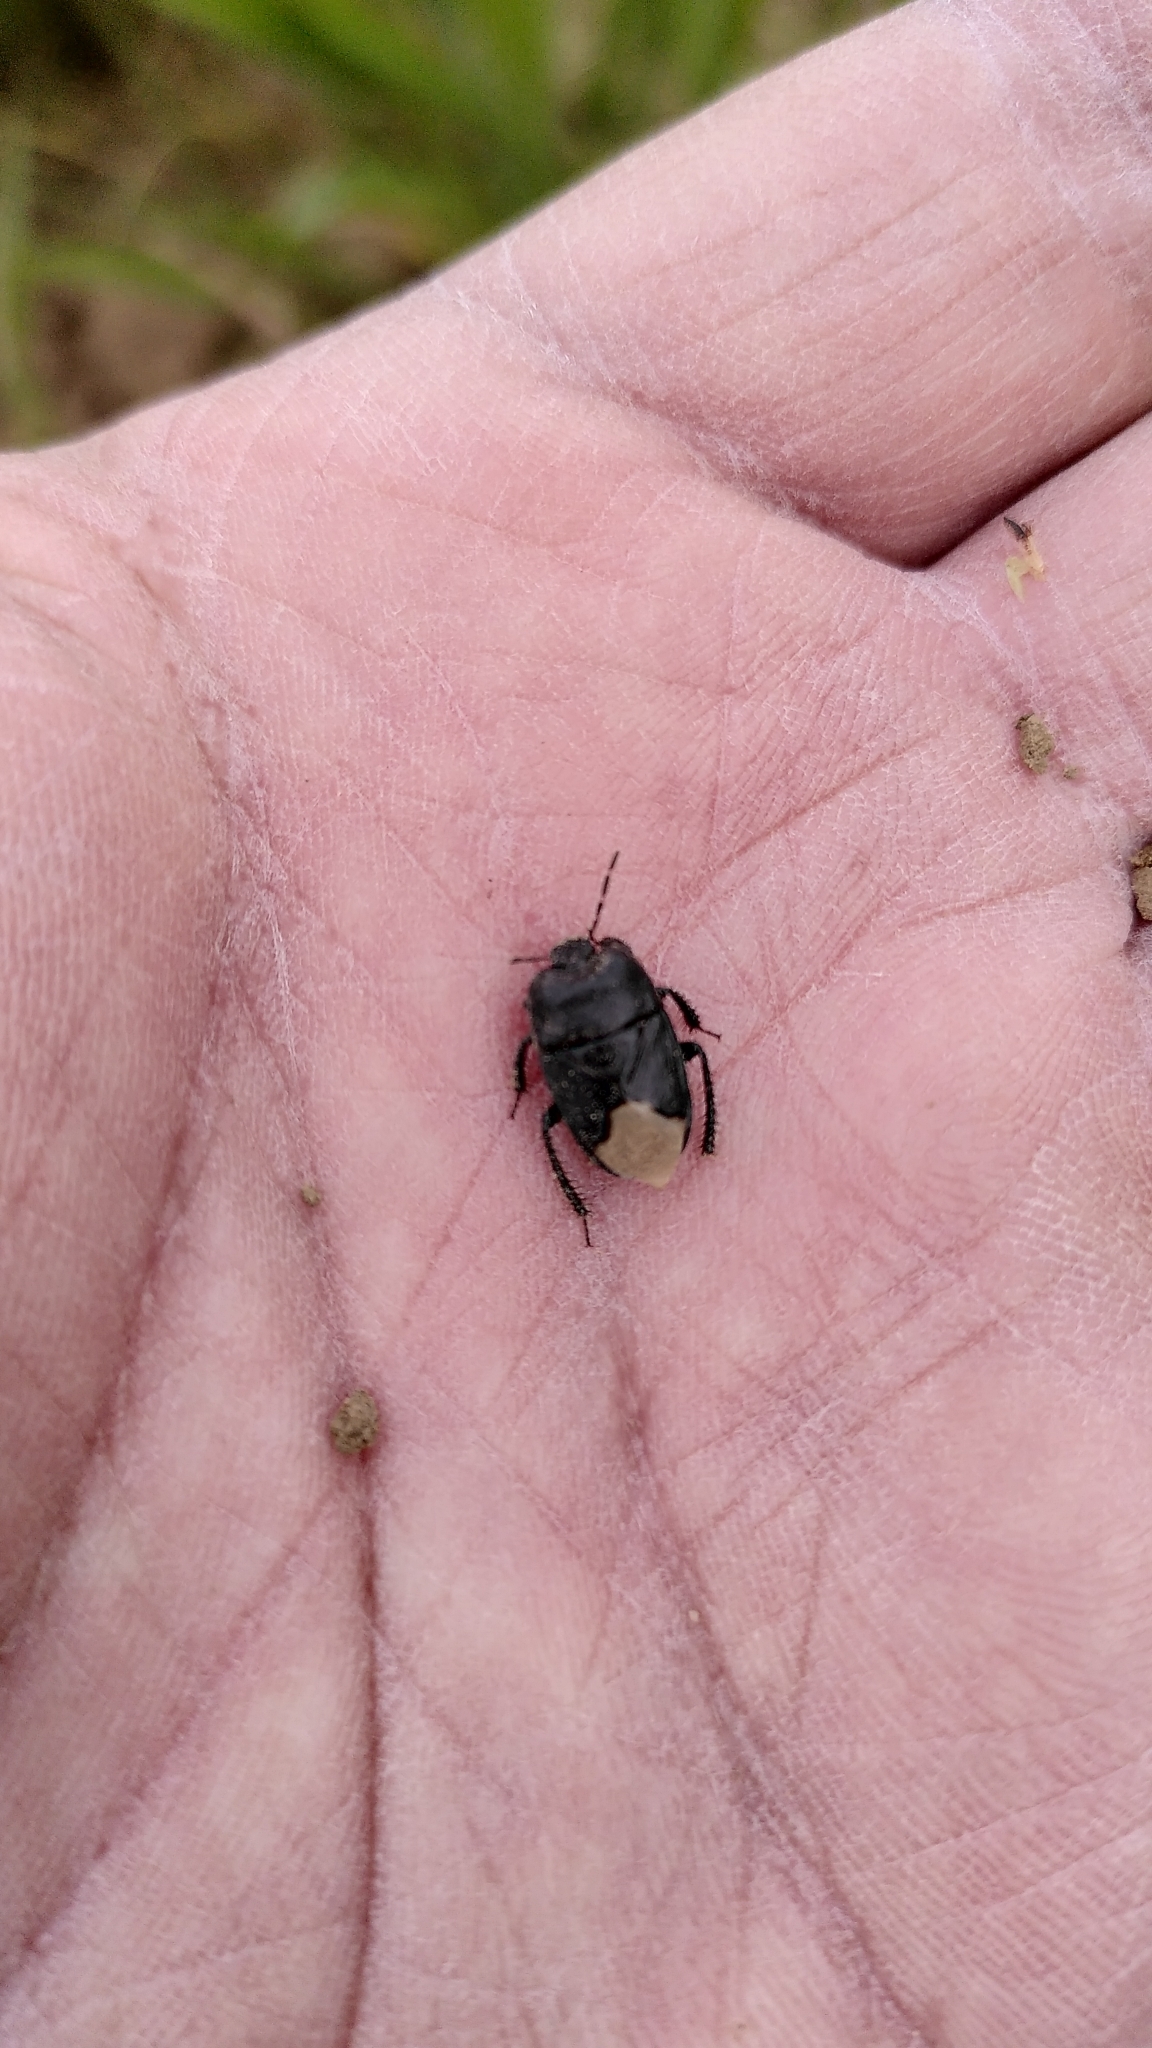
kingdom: Animalia
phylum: Arthropoda
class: Insecta
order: Hemiptera
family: Cydnidae
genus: Cydnus
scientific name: Cydnus aterrimus
